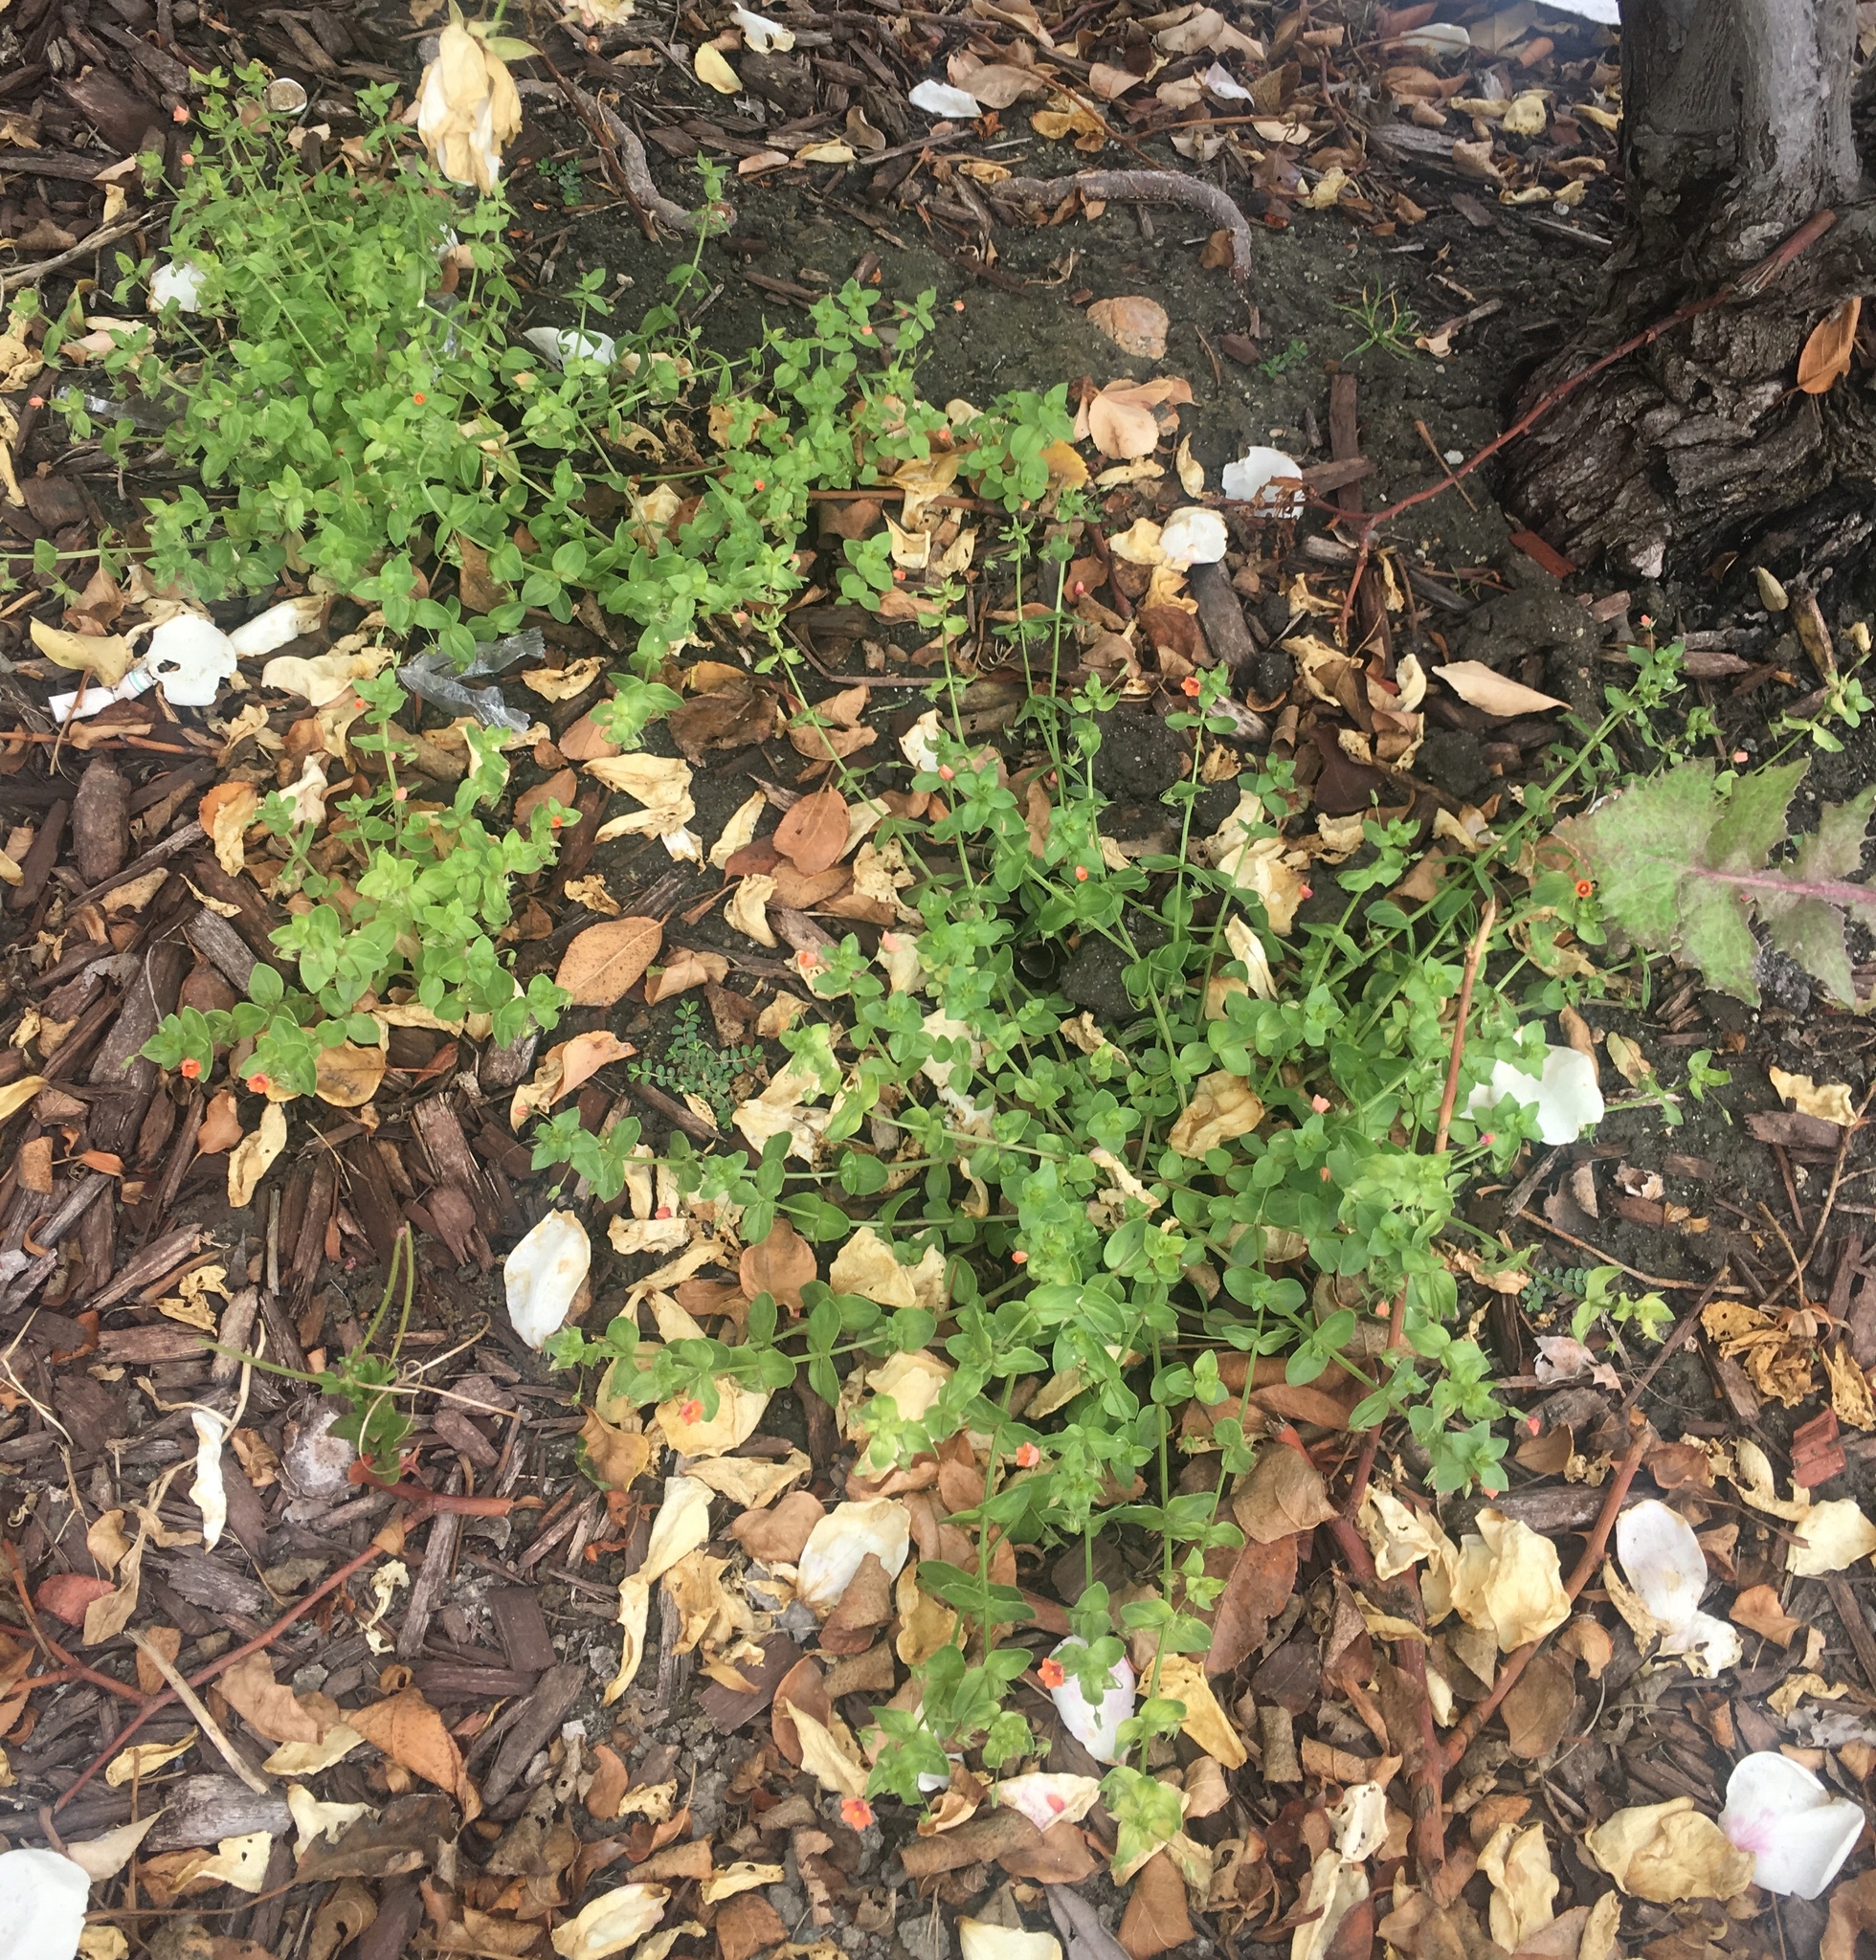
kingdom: Plantae
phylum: Tracheophyta
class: Magnoliopsida
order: Ericales
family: Primulaceae
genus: Lysimachia
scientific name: Lysimachia arvensis
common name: Scarlet pimpernel
